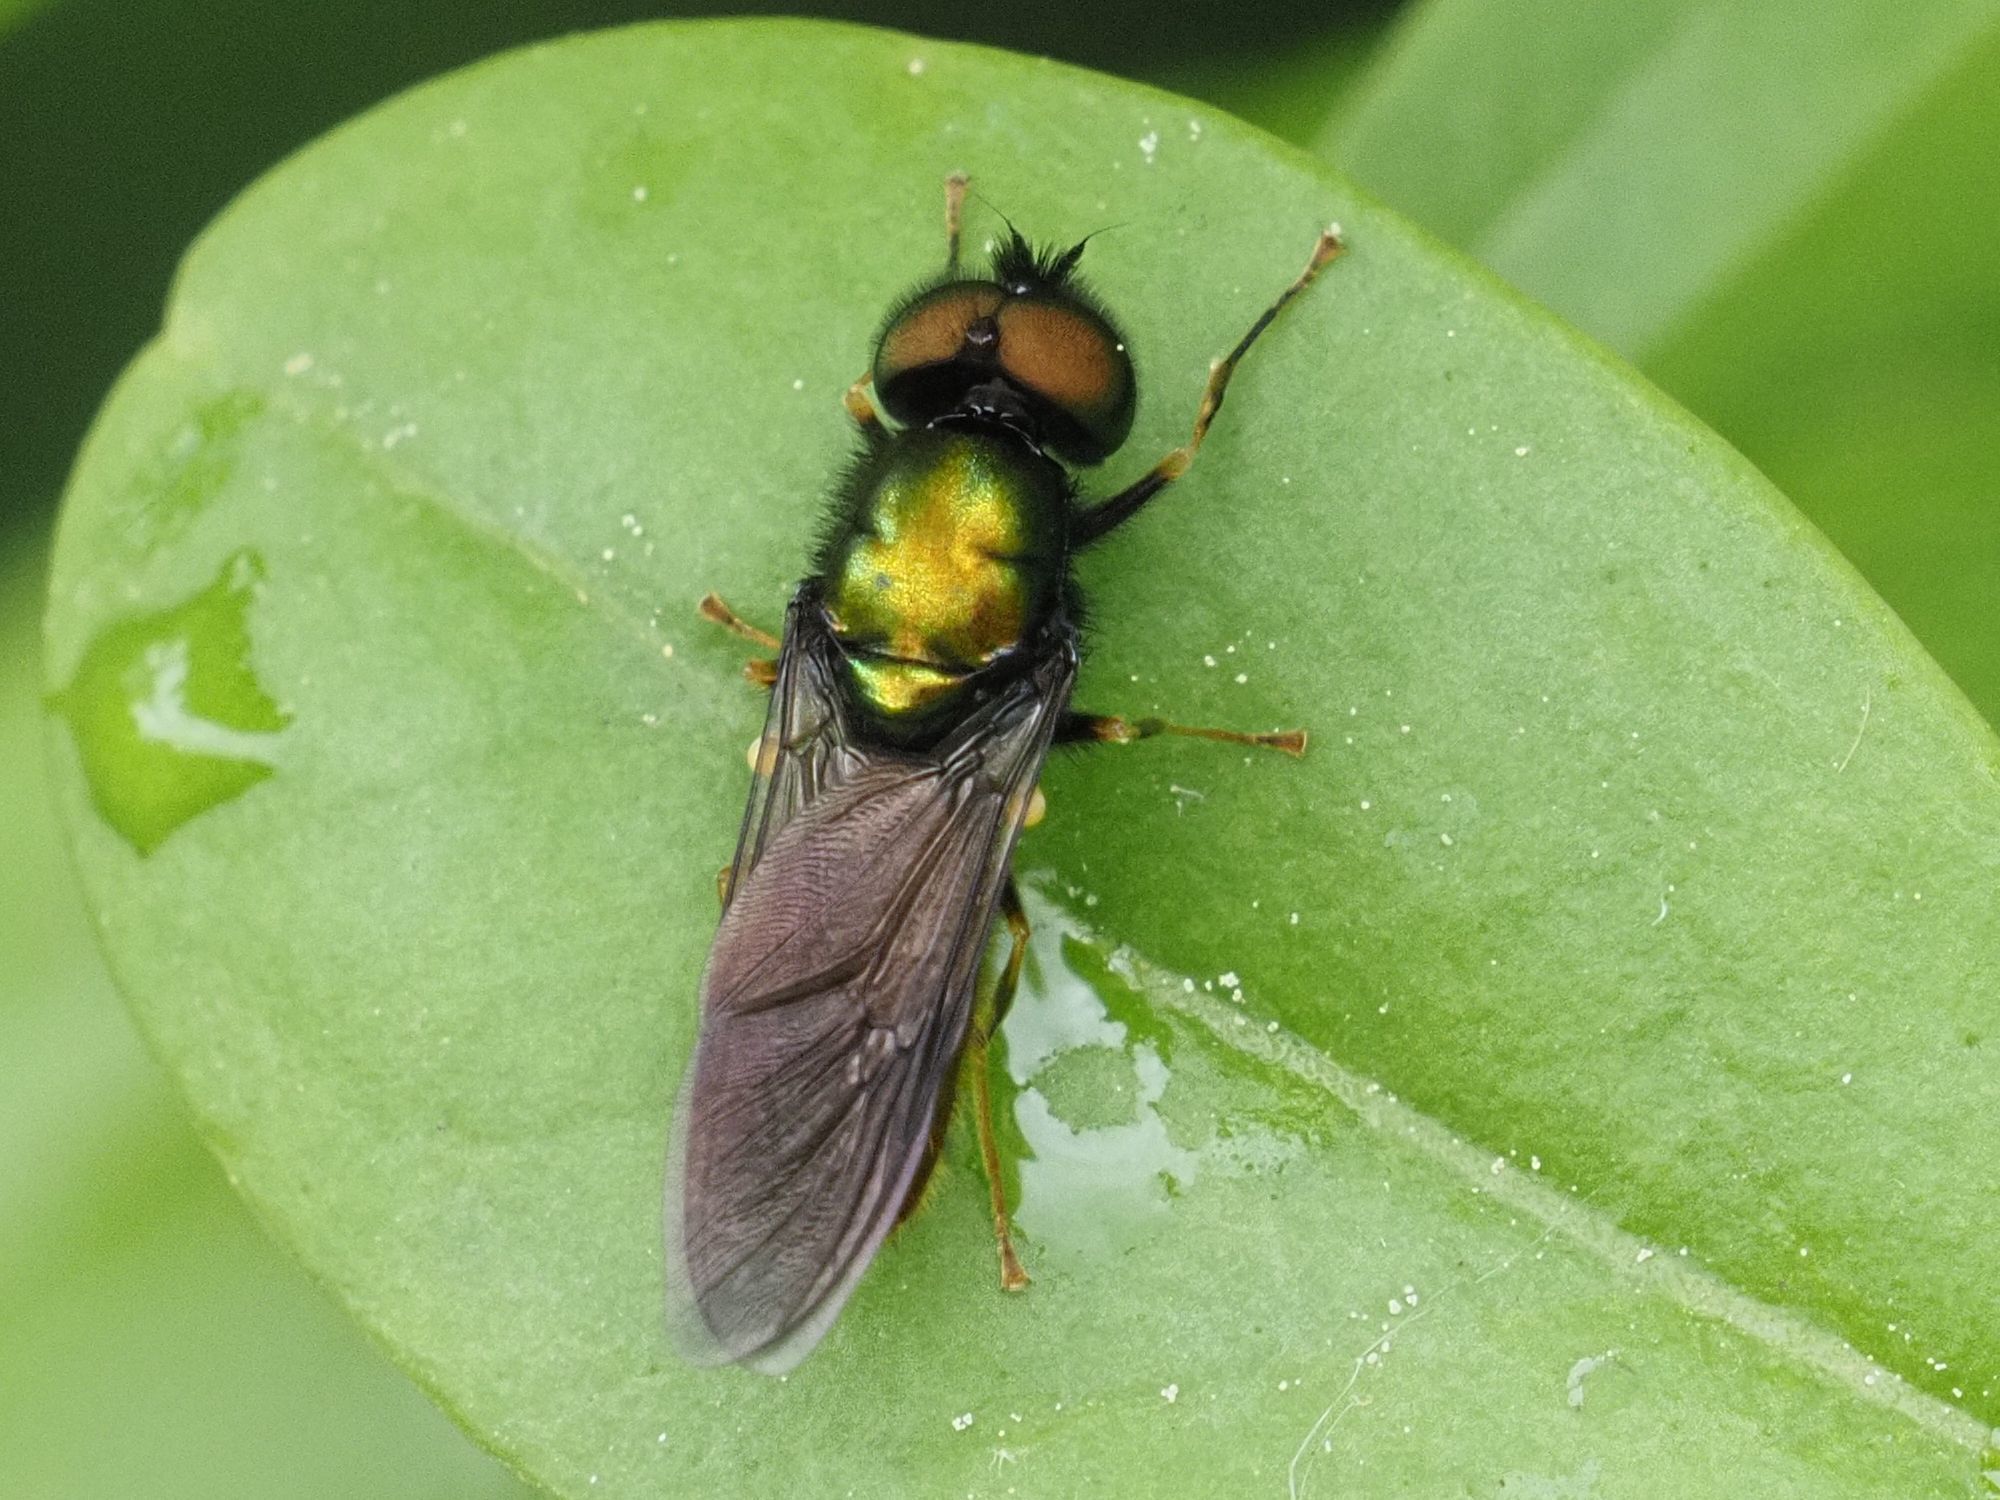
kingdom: Animalia
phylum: Arthropoda
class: Insecta
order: Diptera
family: Stratiomyidae
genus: Chloromyia
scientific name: Chloromyia speciosa
